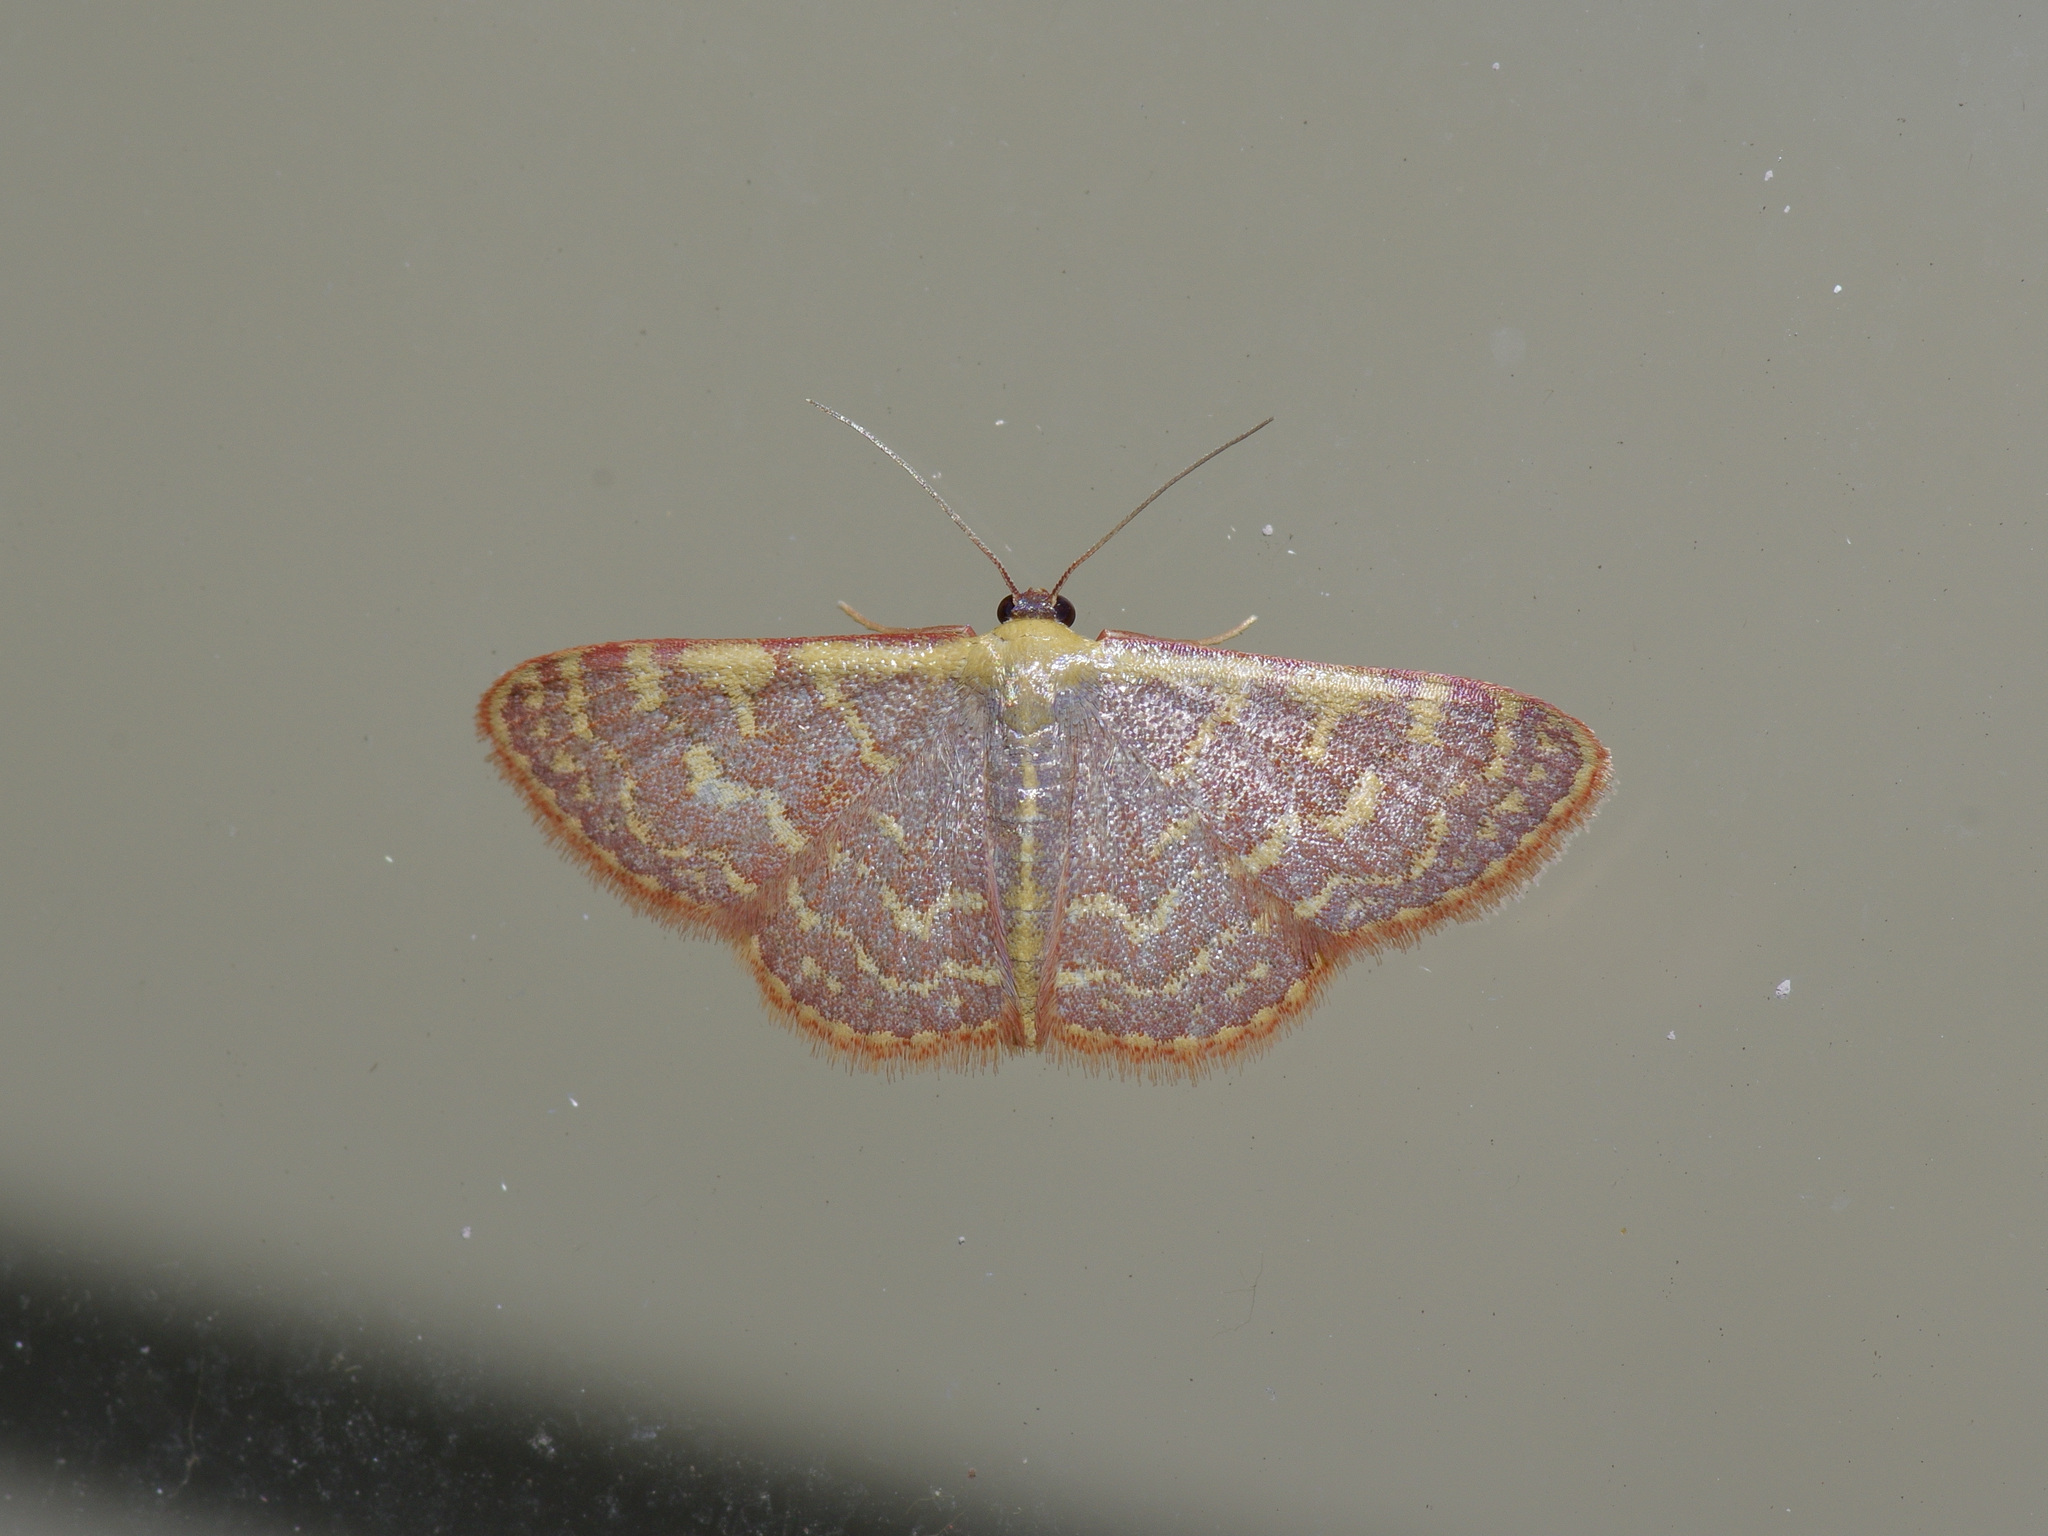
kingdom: Animalia
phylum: Arthropoda
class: Insecta
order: Lepidoptera
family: Geometridae
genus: Leptostales
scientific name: Leptostales pannaria
